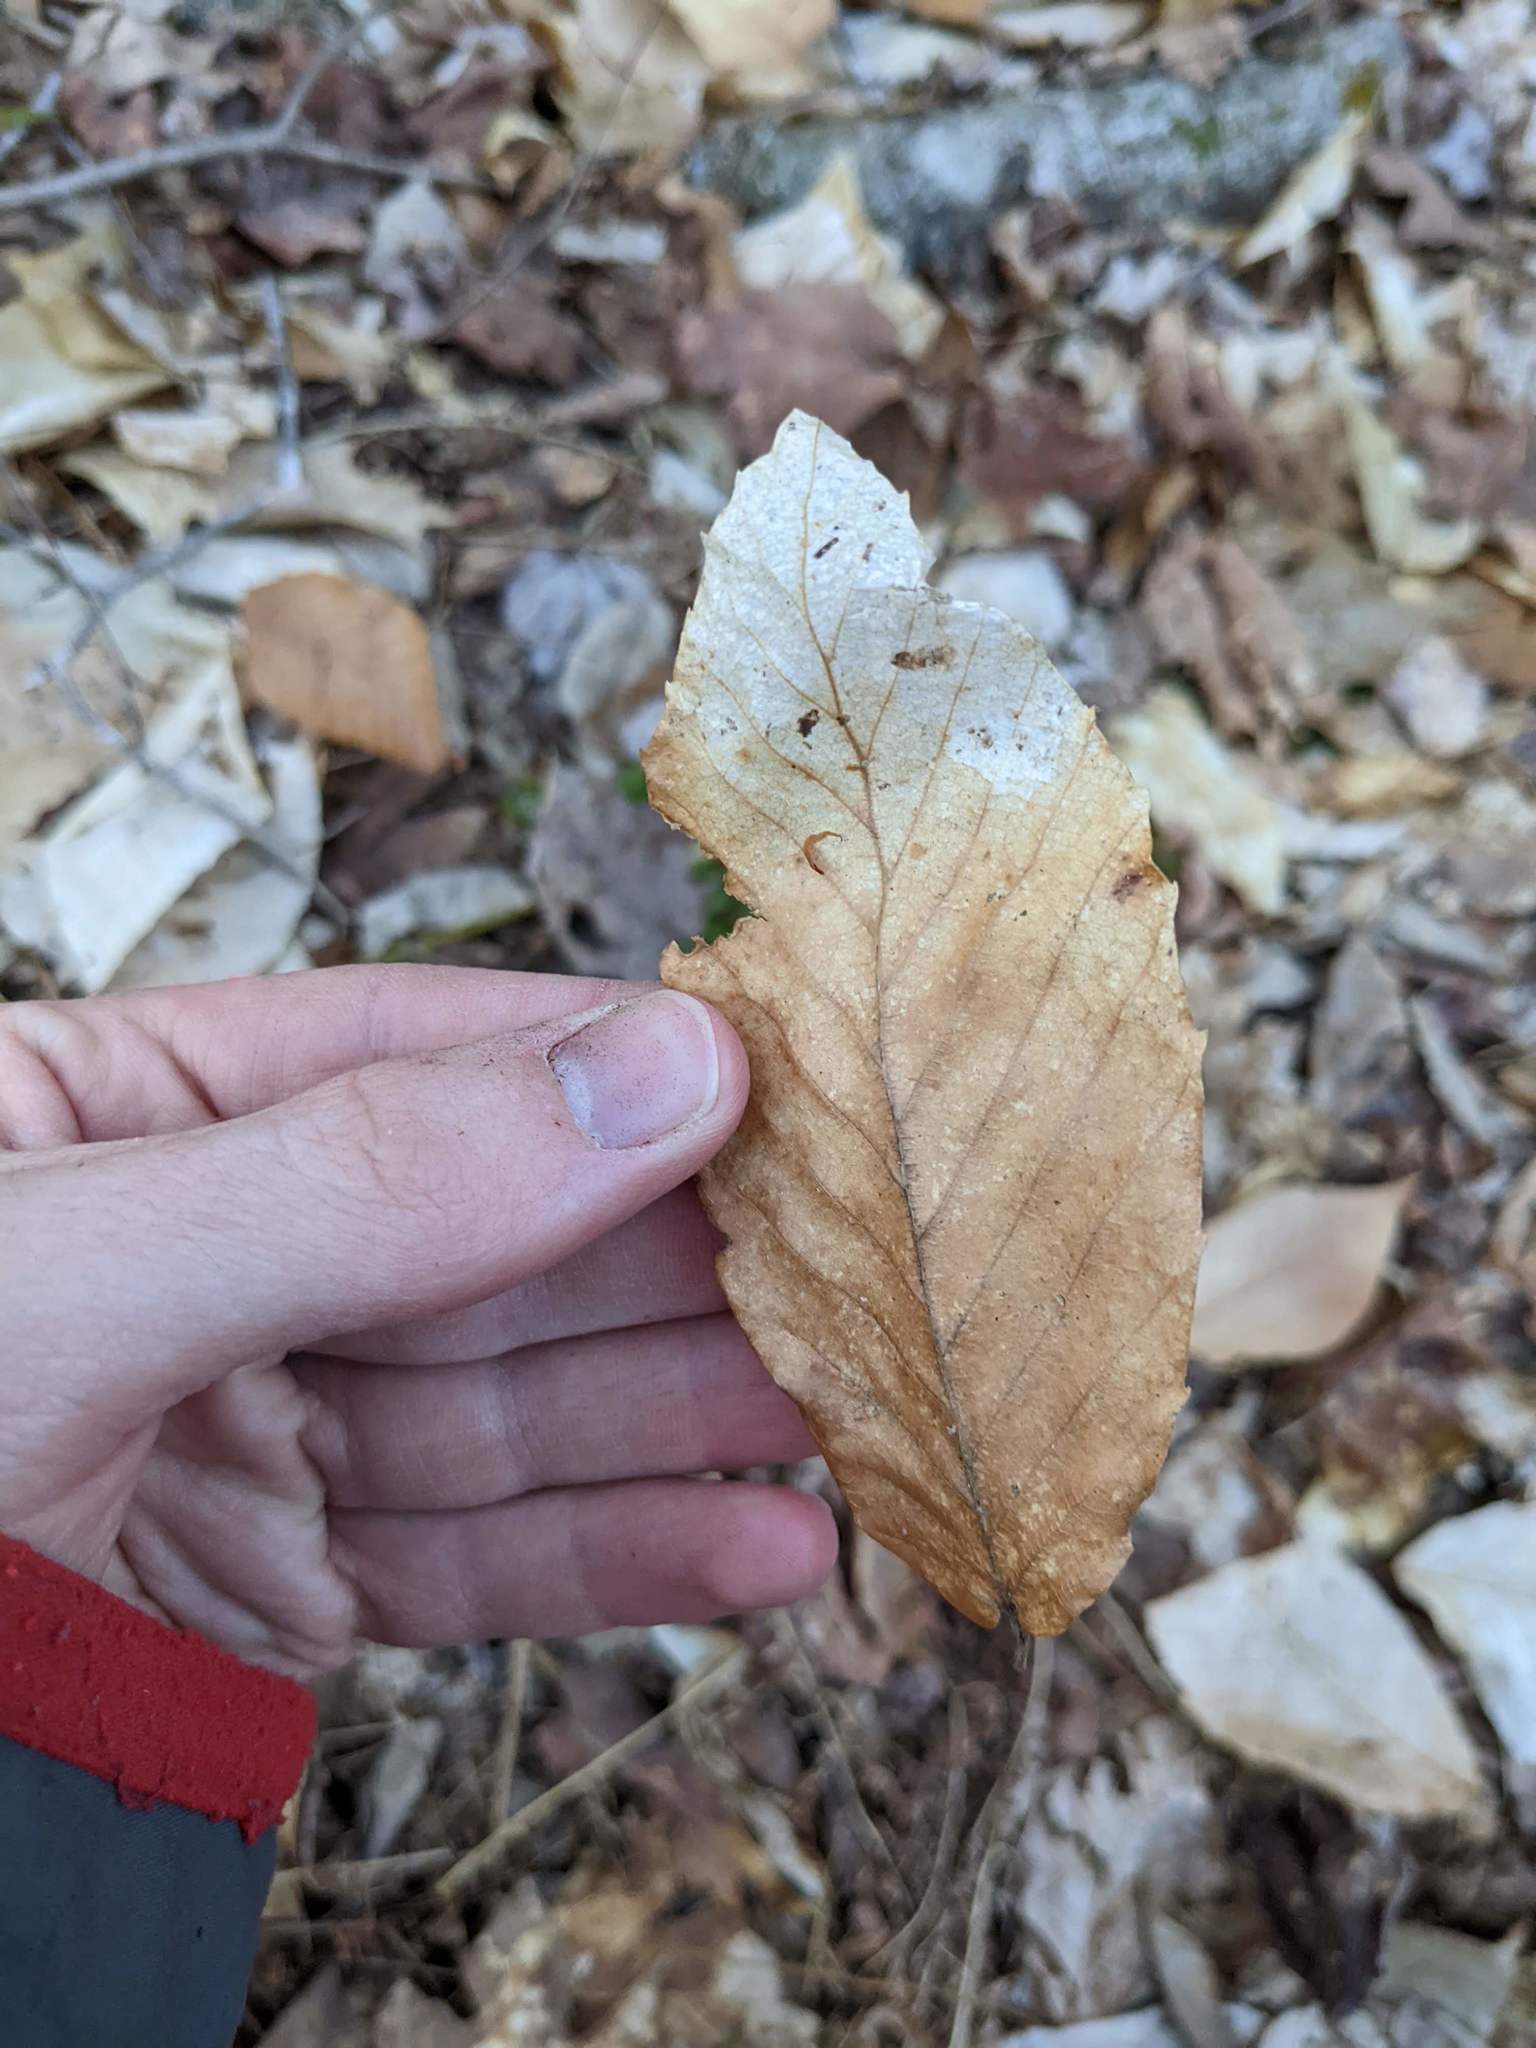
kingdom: Plantae
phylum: Tracheophyta
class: Magnoliopsida
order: Fagales
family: Fagaceae
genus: Fagus
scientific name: Fagus grandifolia
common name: American beech
